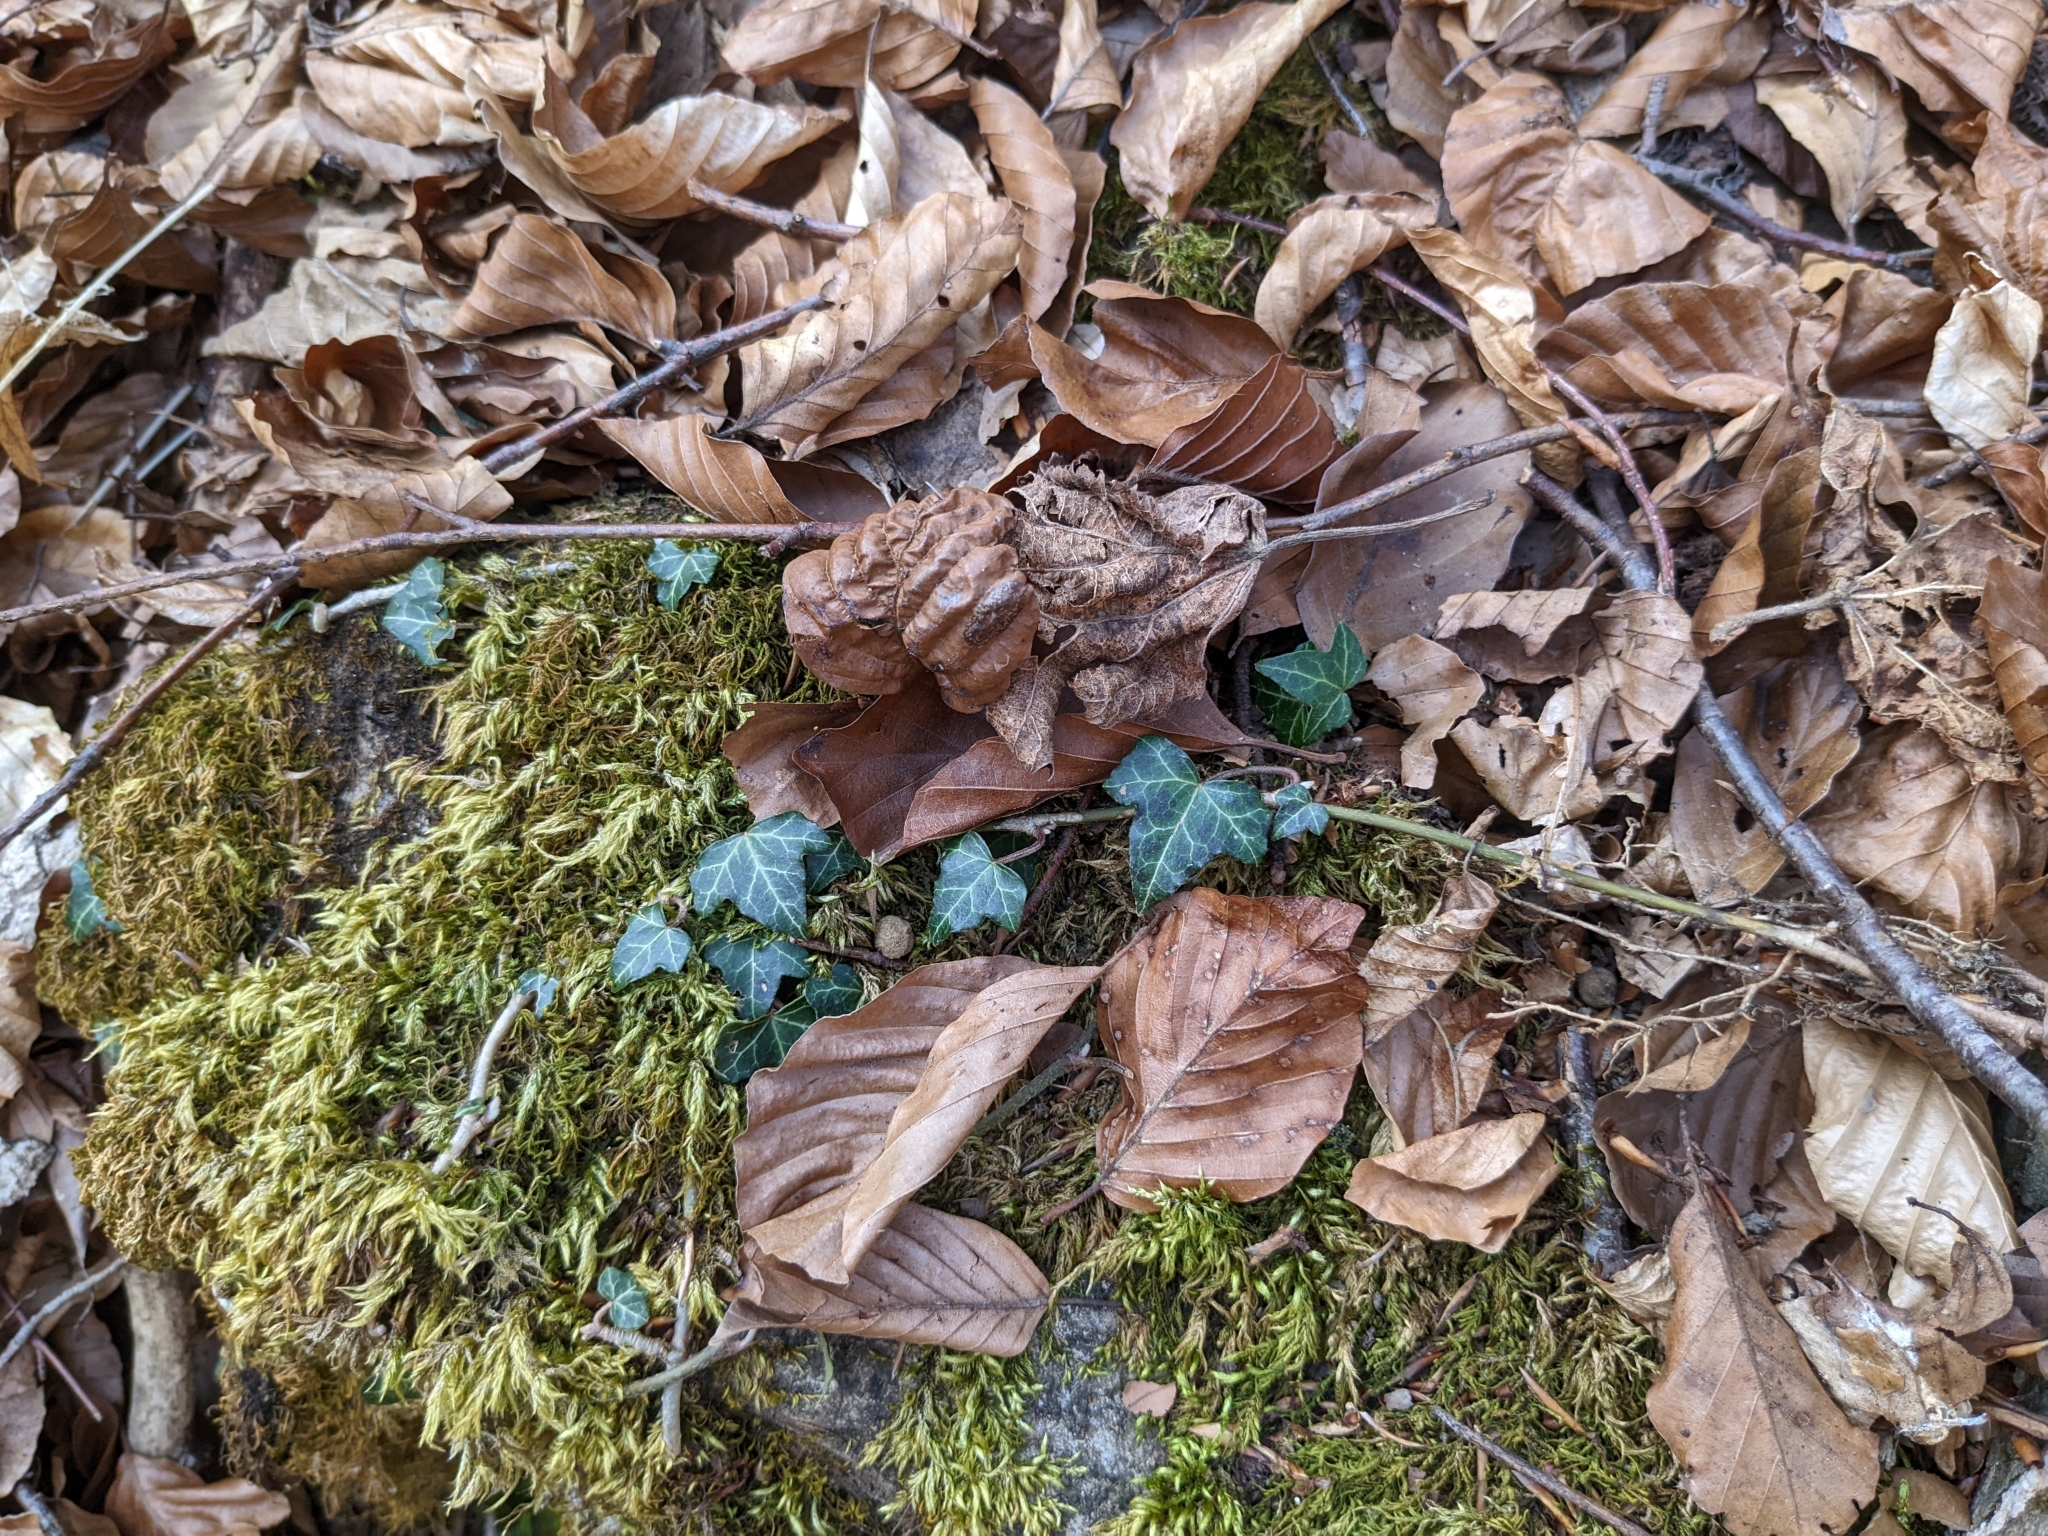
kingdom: Plantae
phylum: Tracheophyta
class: Magnoliopsida
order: Apiales
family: Araliaceae
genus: Hedera
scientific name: Hedera helix
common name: Ivy
